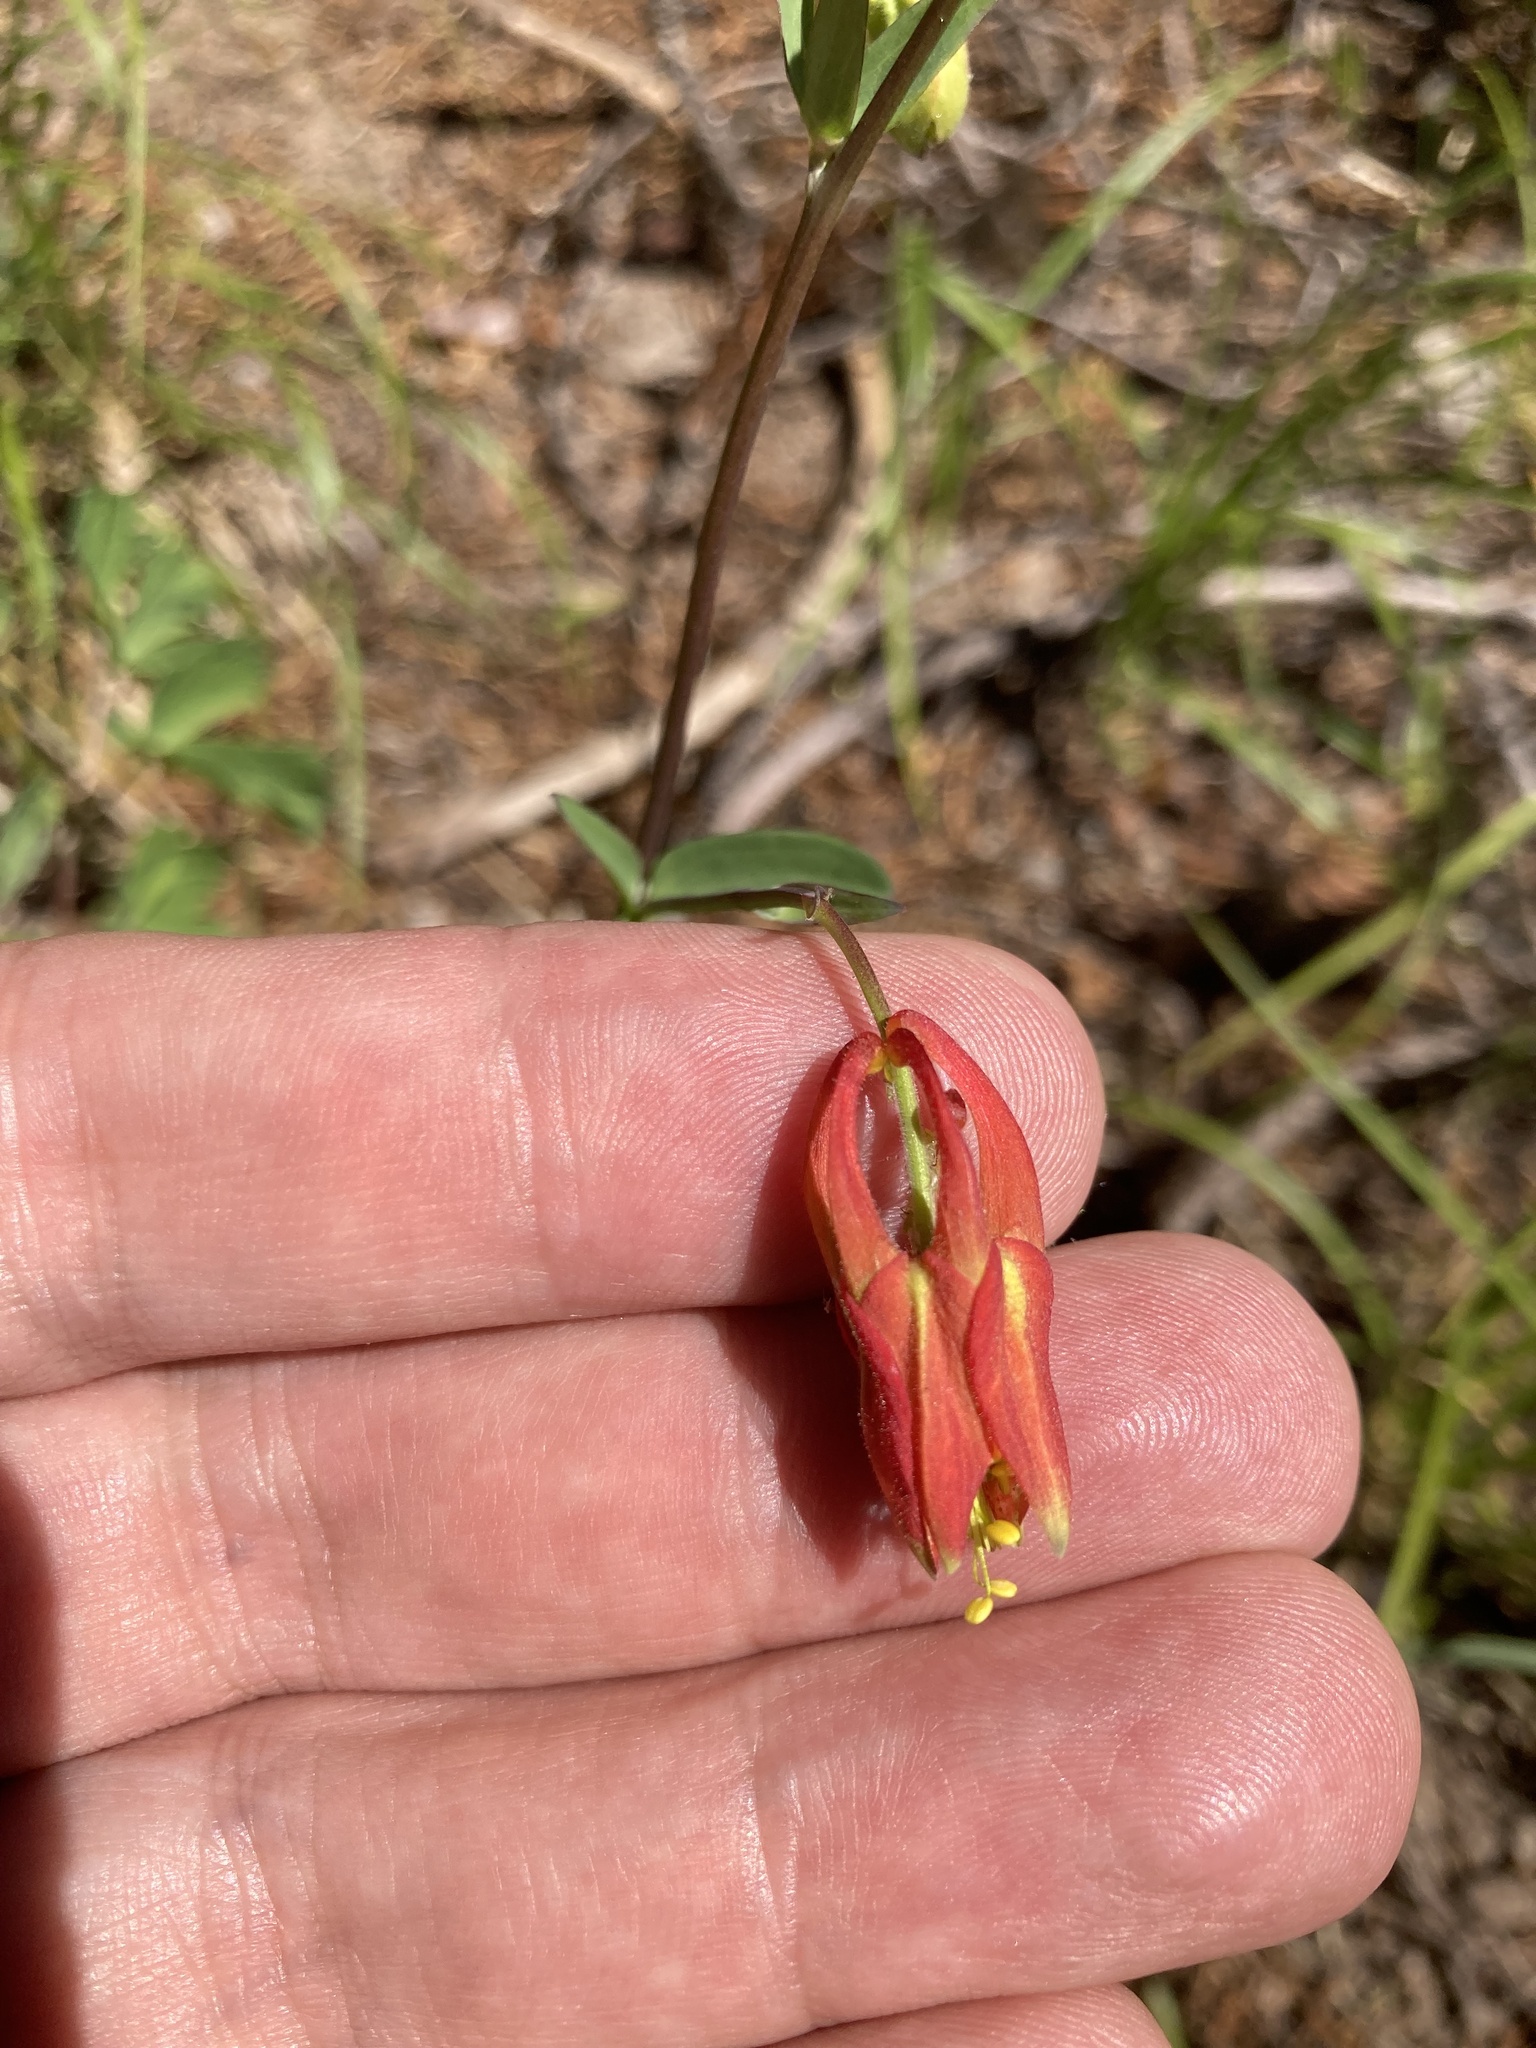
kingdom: Plantae
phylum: Tracheophyta
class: Magnoliopsida
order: Ranunculales
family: Ranunculaceae
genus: Aquilegia
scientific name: Aquilegia formosa
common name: Sitka columbine
